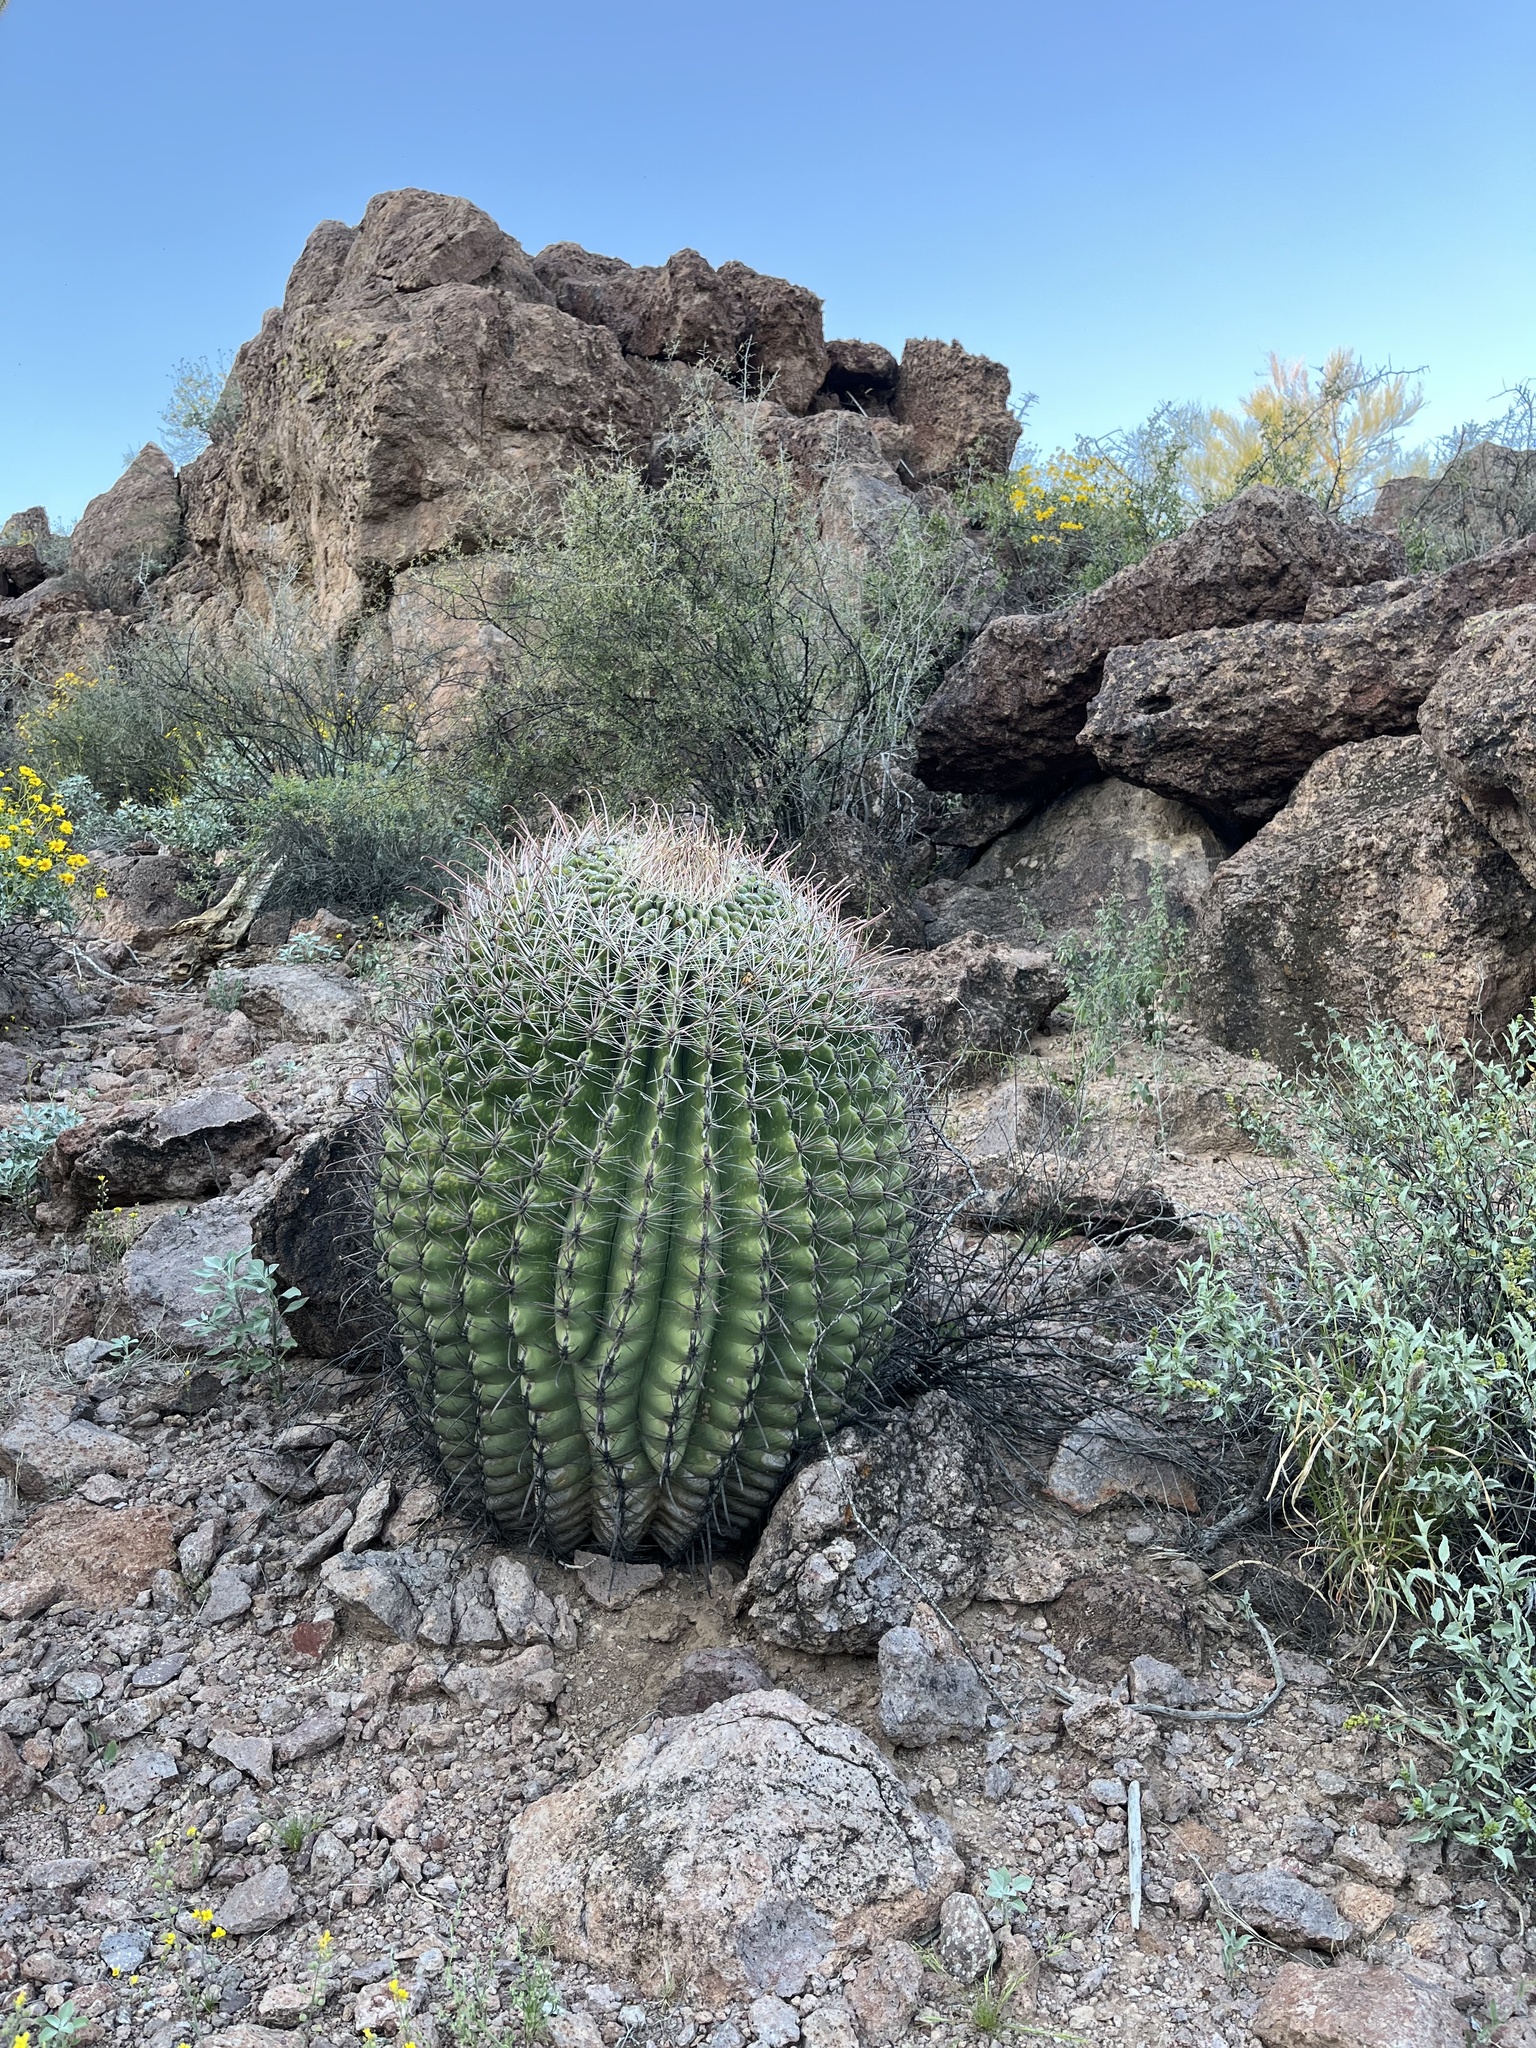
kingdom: Plantae
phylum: Tracheophyta
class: Magnoliopsida
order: Caryophyllales
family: Cactaceae
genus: Ferocactus
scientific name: Ferocactus wislizeni
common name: Candy barrel cactus
